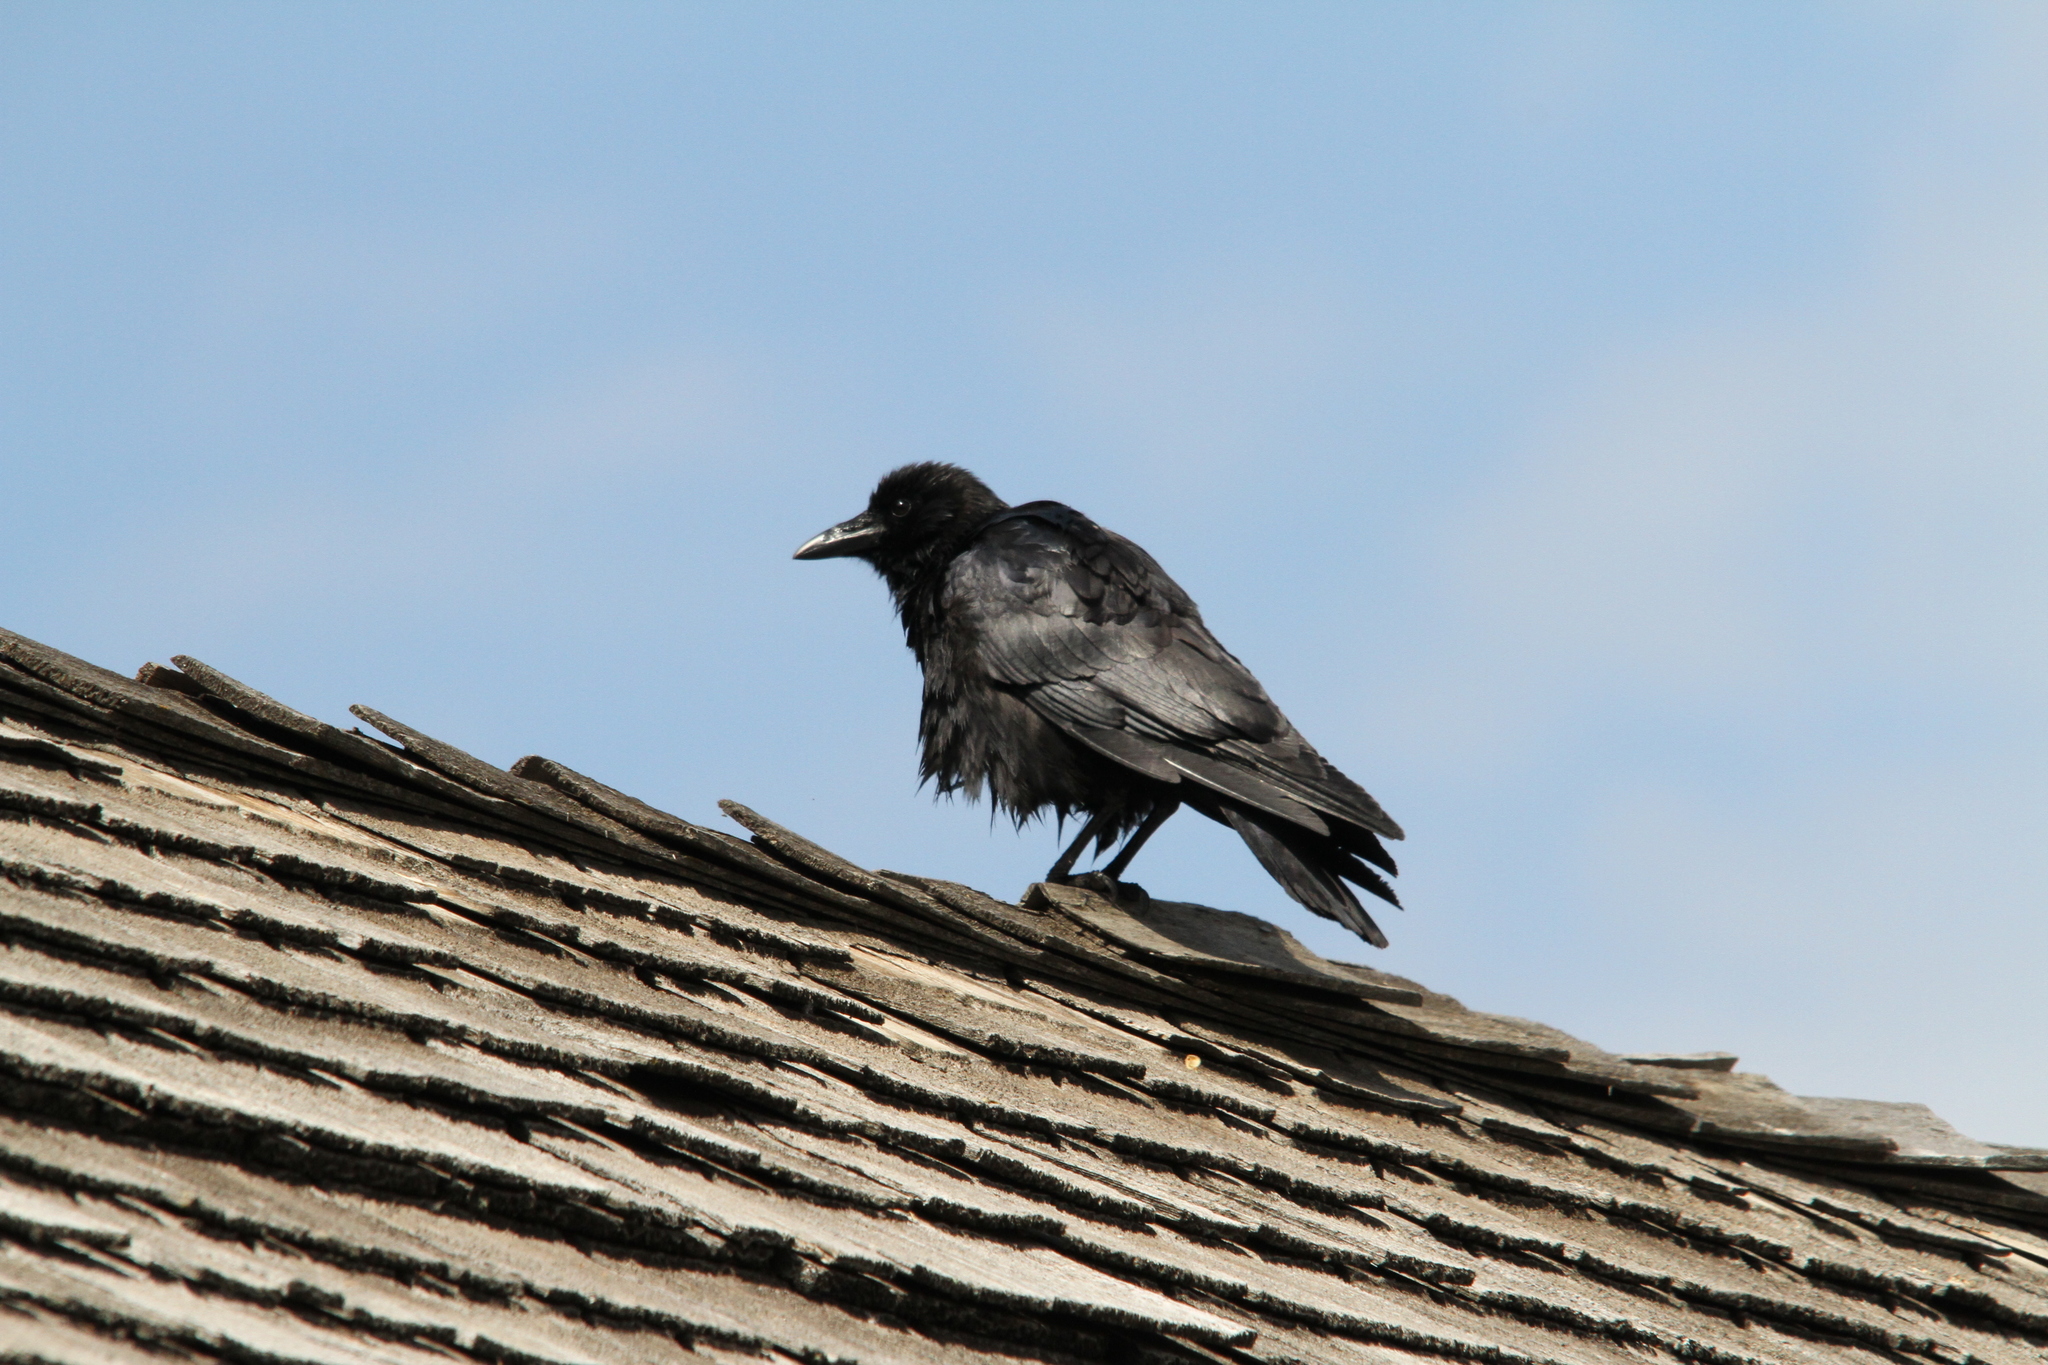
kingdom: Animalia
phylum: Chordata
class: Aves
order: Passeriformes
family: Corvidae
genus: Corvus
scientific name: Corvus brachyrhynchos
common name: American crow
